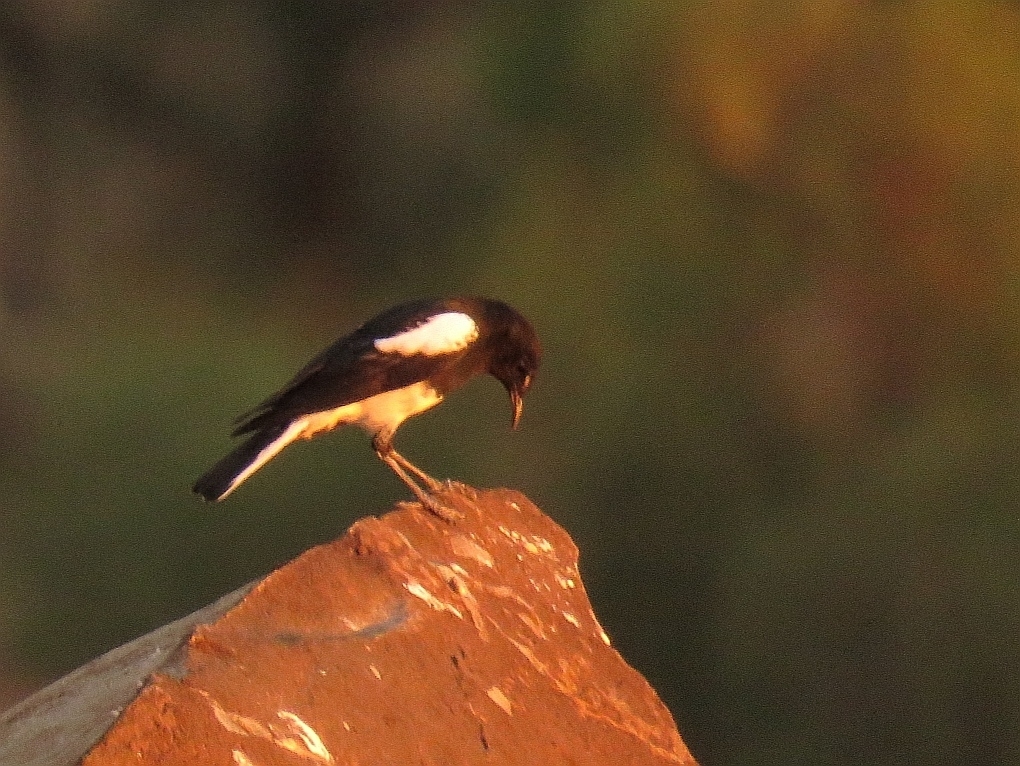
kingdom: Animalia
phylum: Chordata
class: Aves
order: Passeriformes
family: Muscicapidae
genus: Oenanthe
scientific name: Oenanthe monticola
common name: Mountain wheatear
